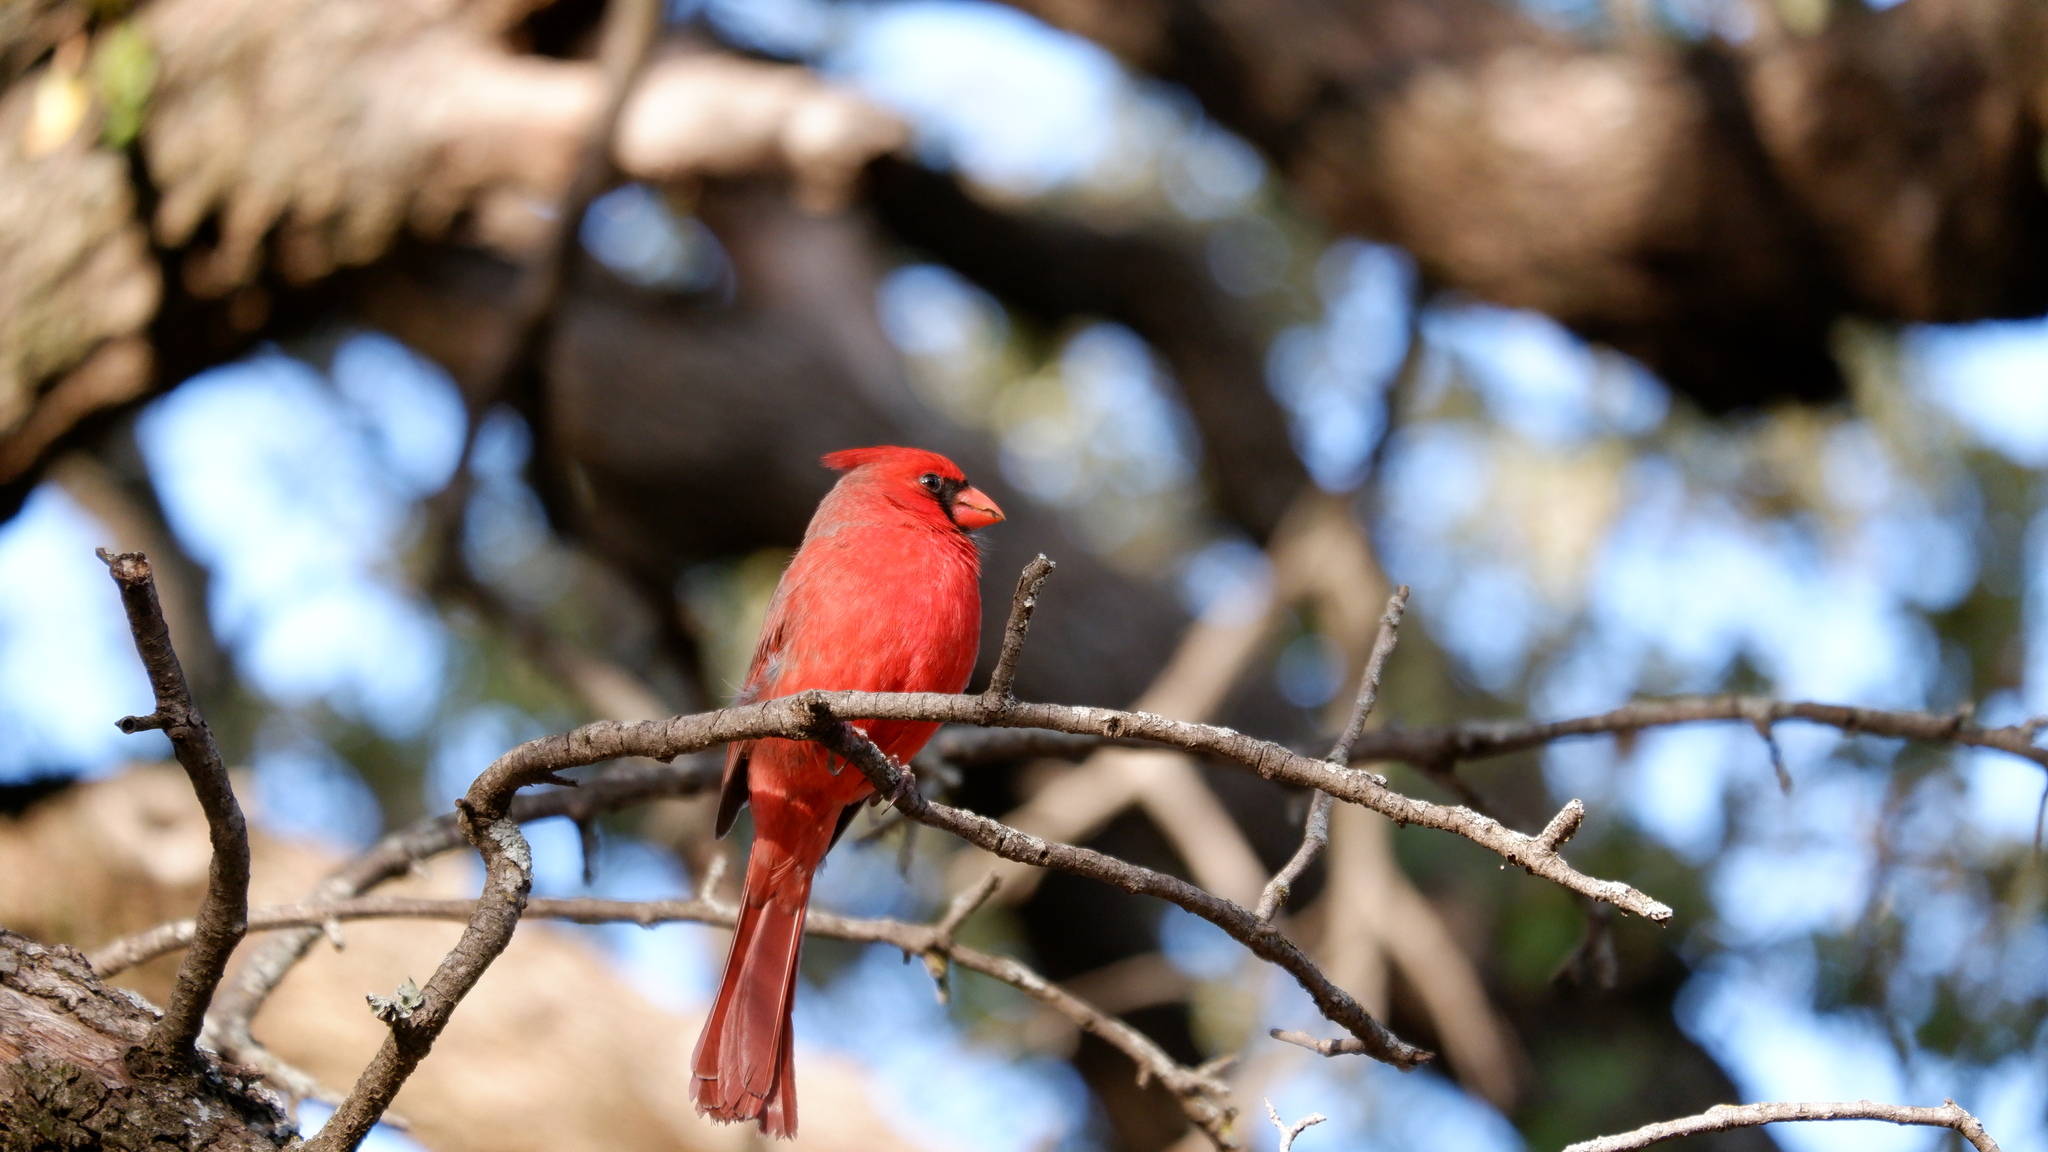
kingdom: Animalia
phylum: Chordata
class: Aves
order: Passeriformes
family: Cardinalidae
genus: Cardinalis
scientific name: Cardinalis cardinalis
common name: Northern cardinal
